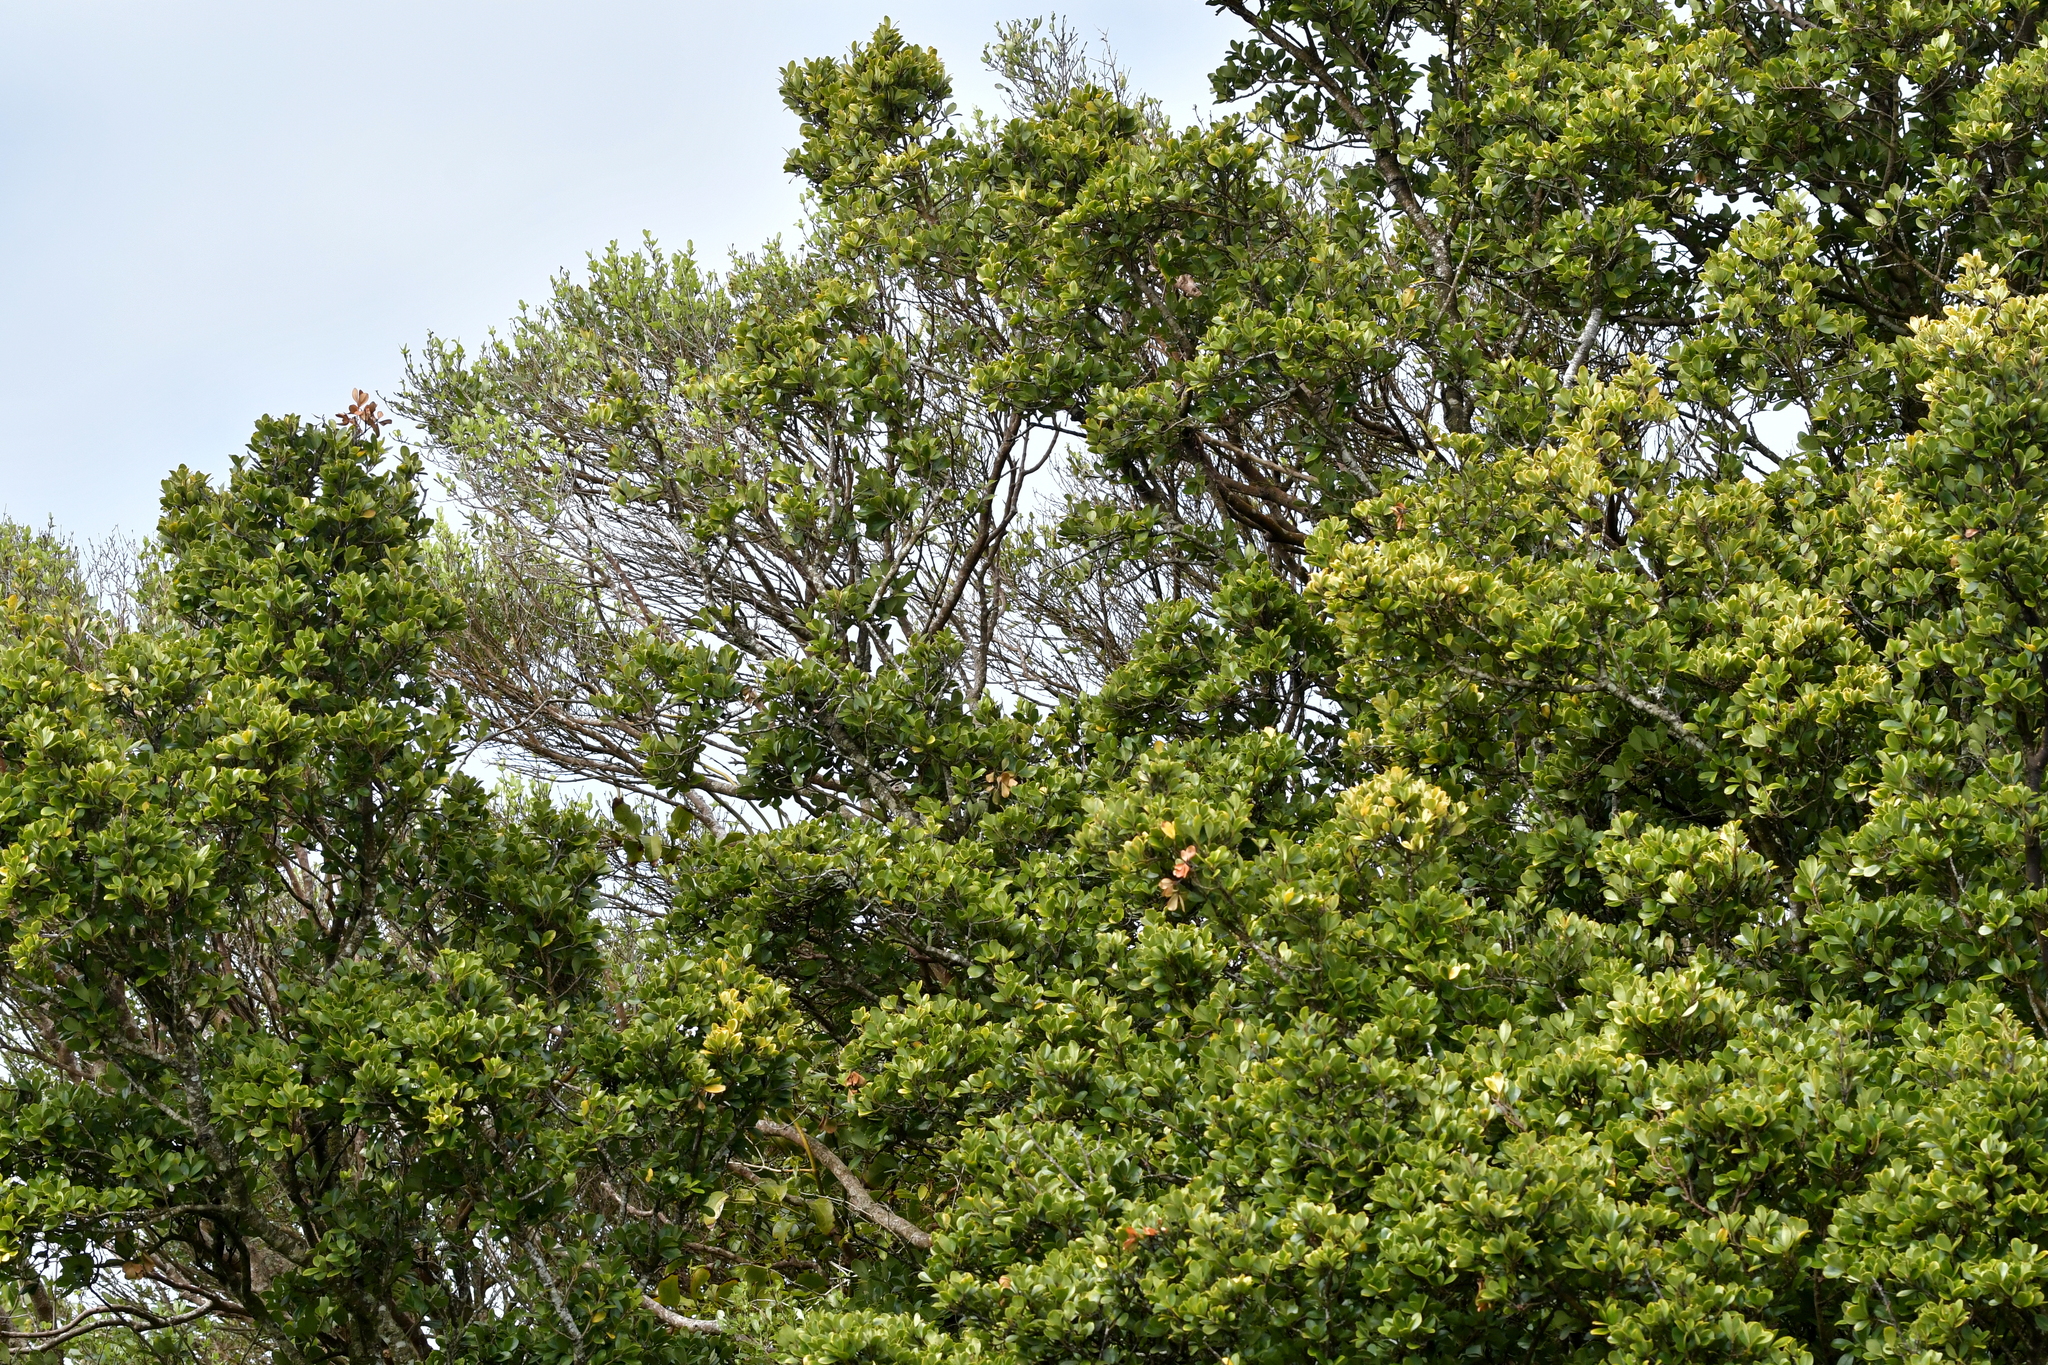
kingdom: Plantae
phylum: Tracheophyta
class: Magnoliopsida
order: Ericales
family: Primulaceae
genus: Myrsine
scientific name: Myrsine chathamica
